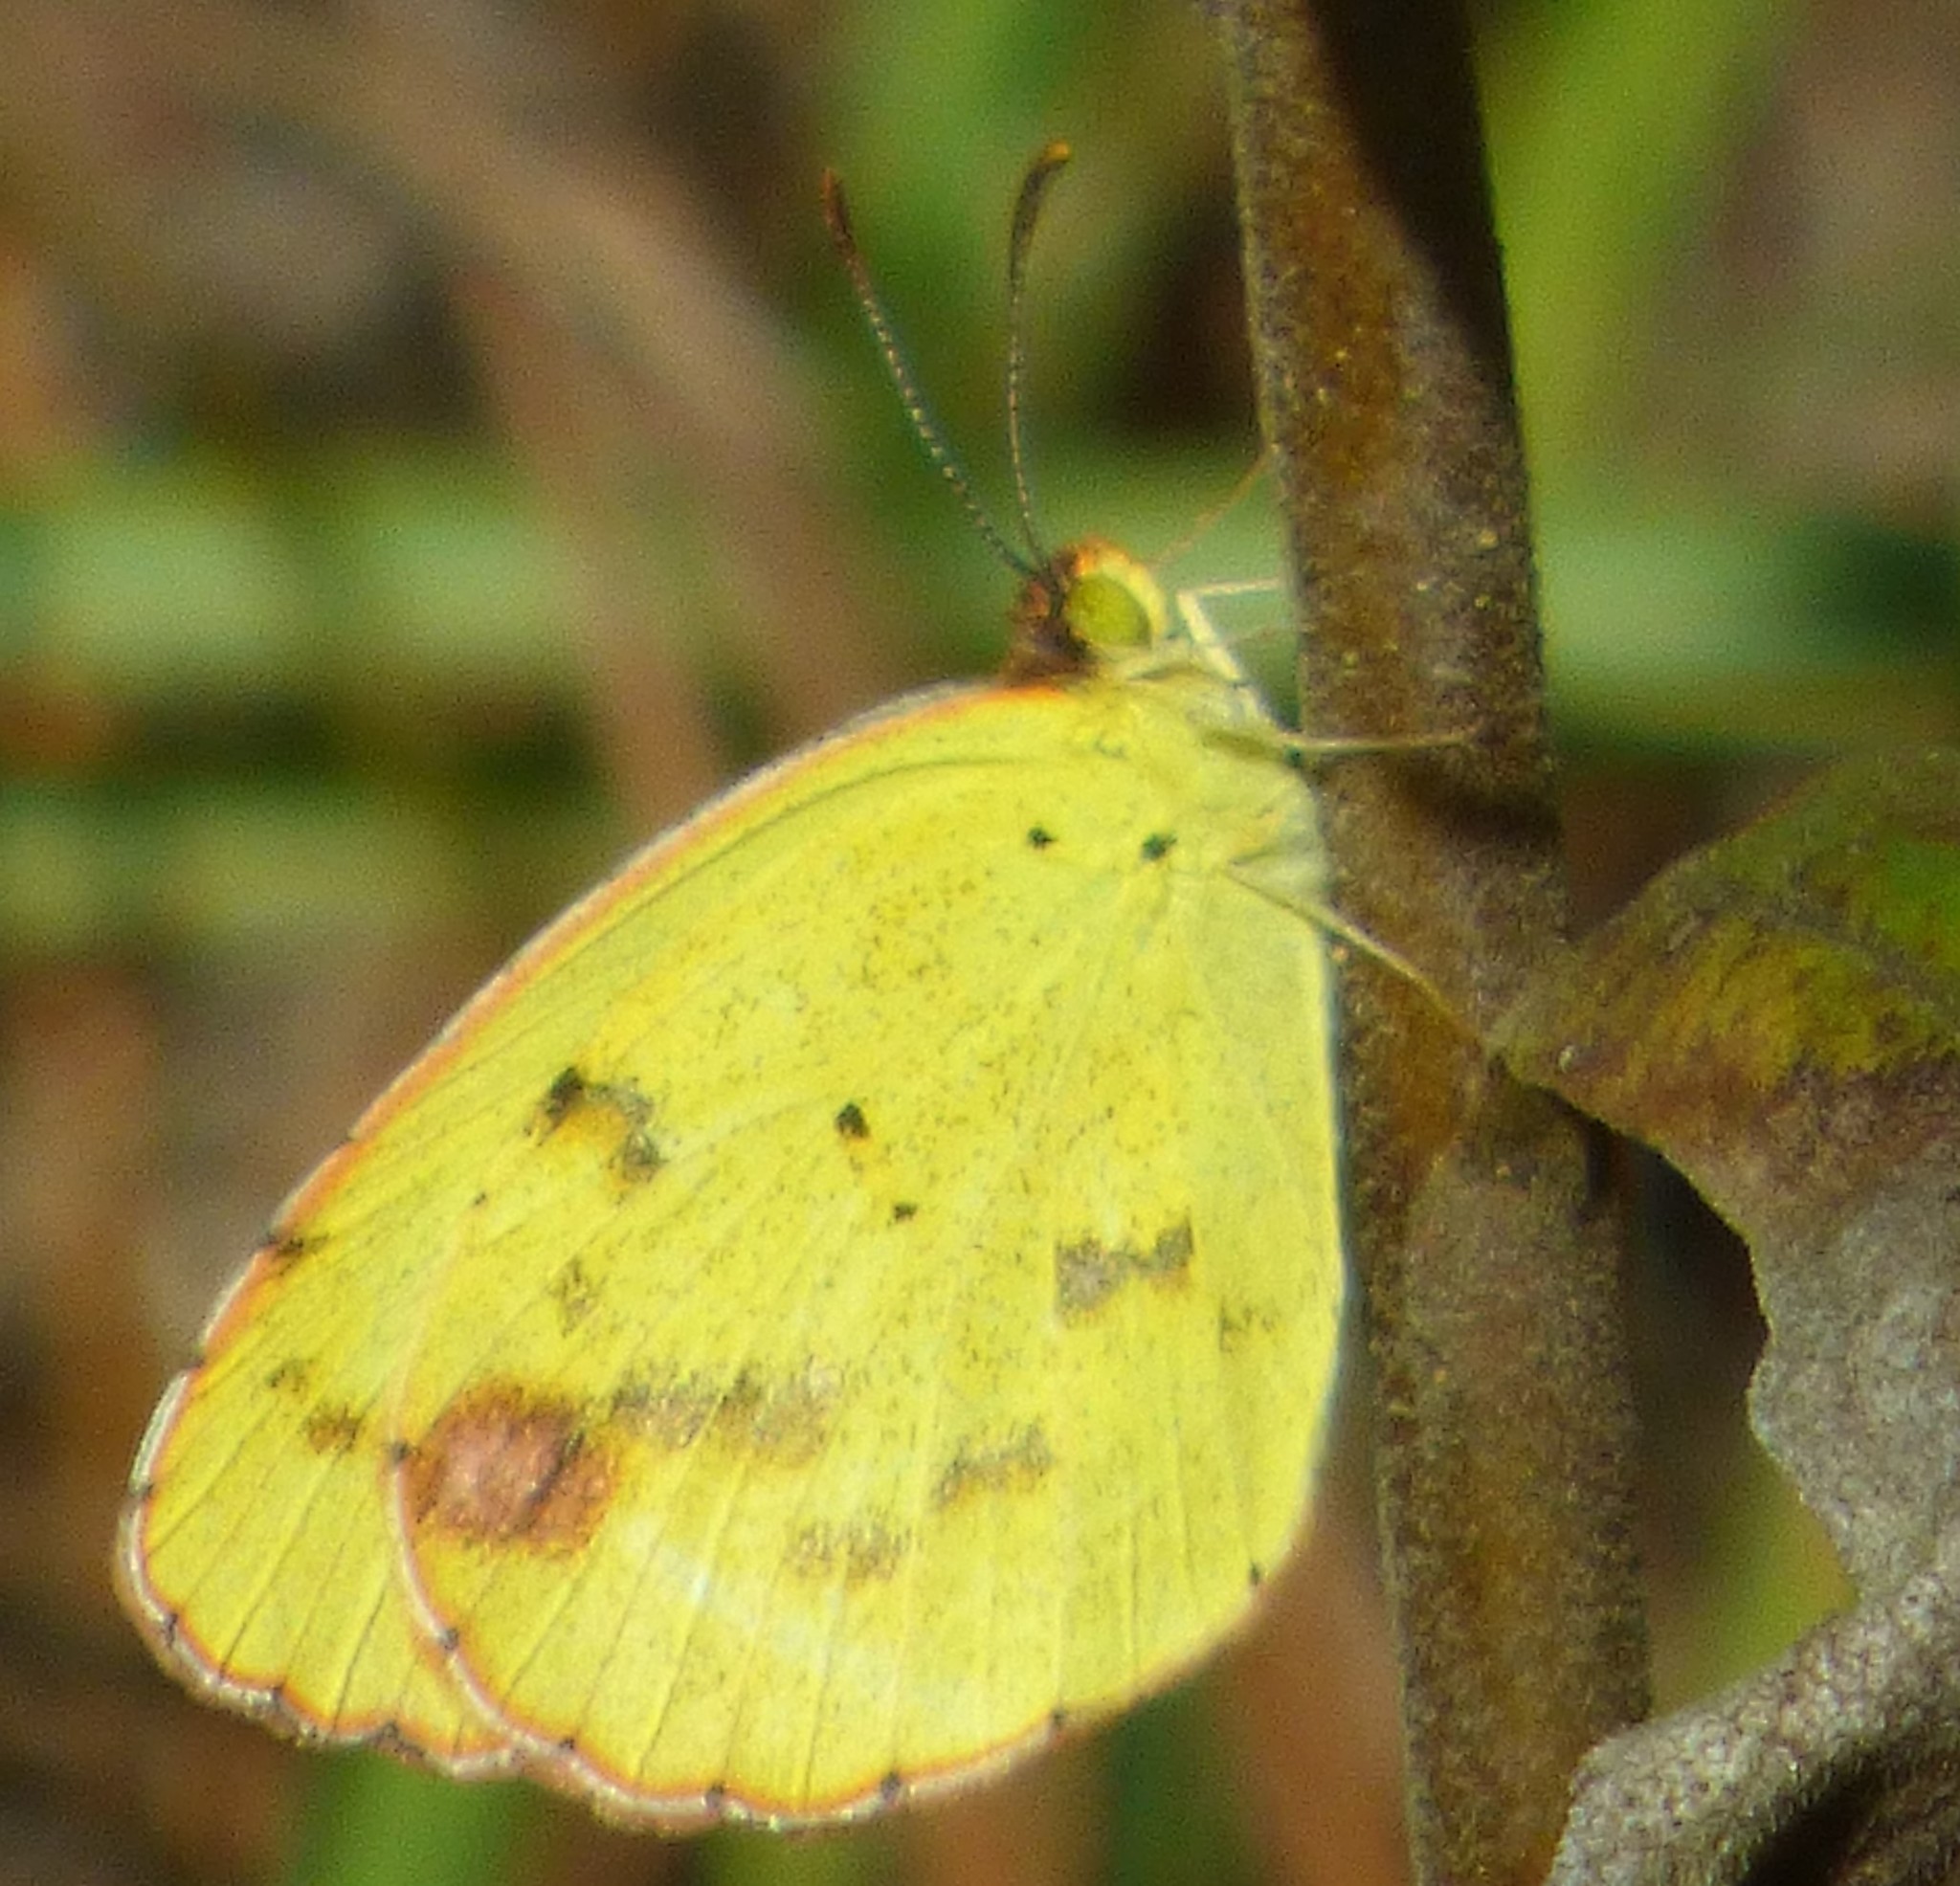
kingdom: Animalia
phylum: Arthropoda
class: Insecta
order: Lepidoptera
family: Pieridae
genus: Pyrisitia
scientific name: Pyrisitia lisa
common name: Little yellow
